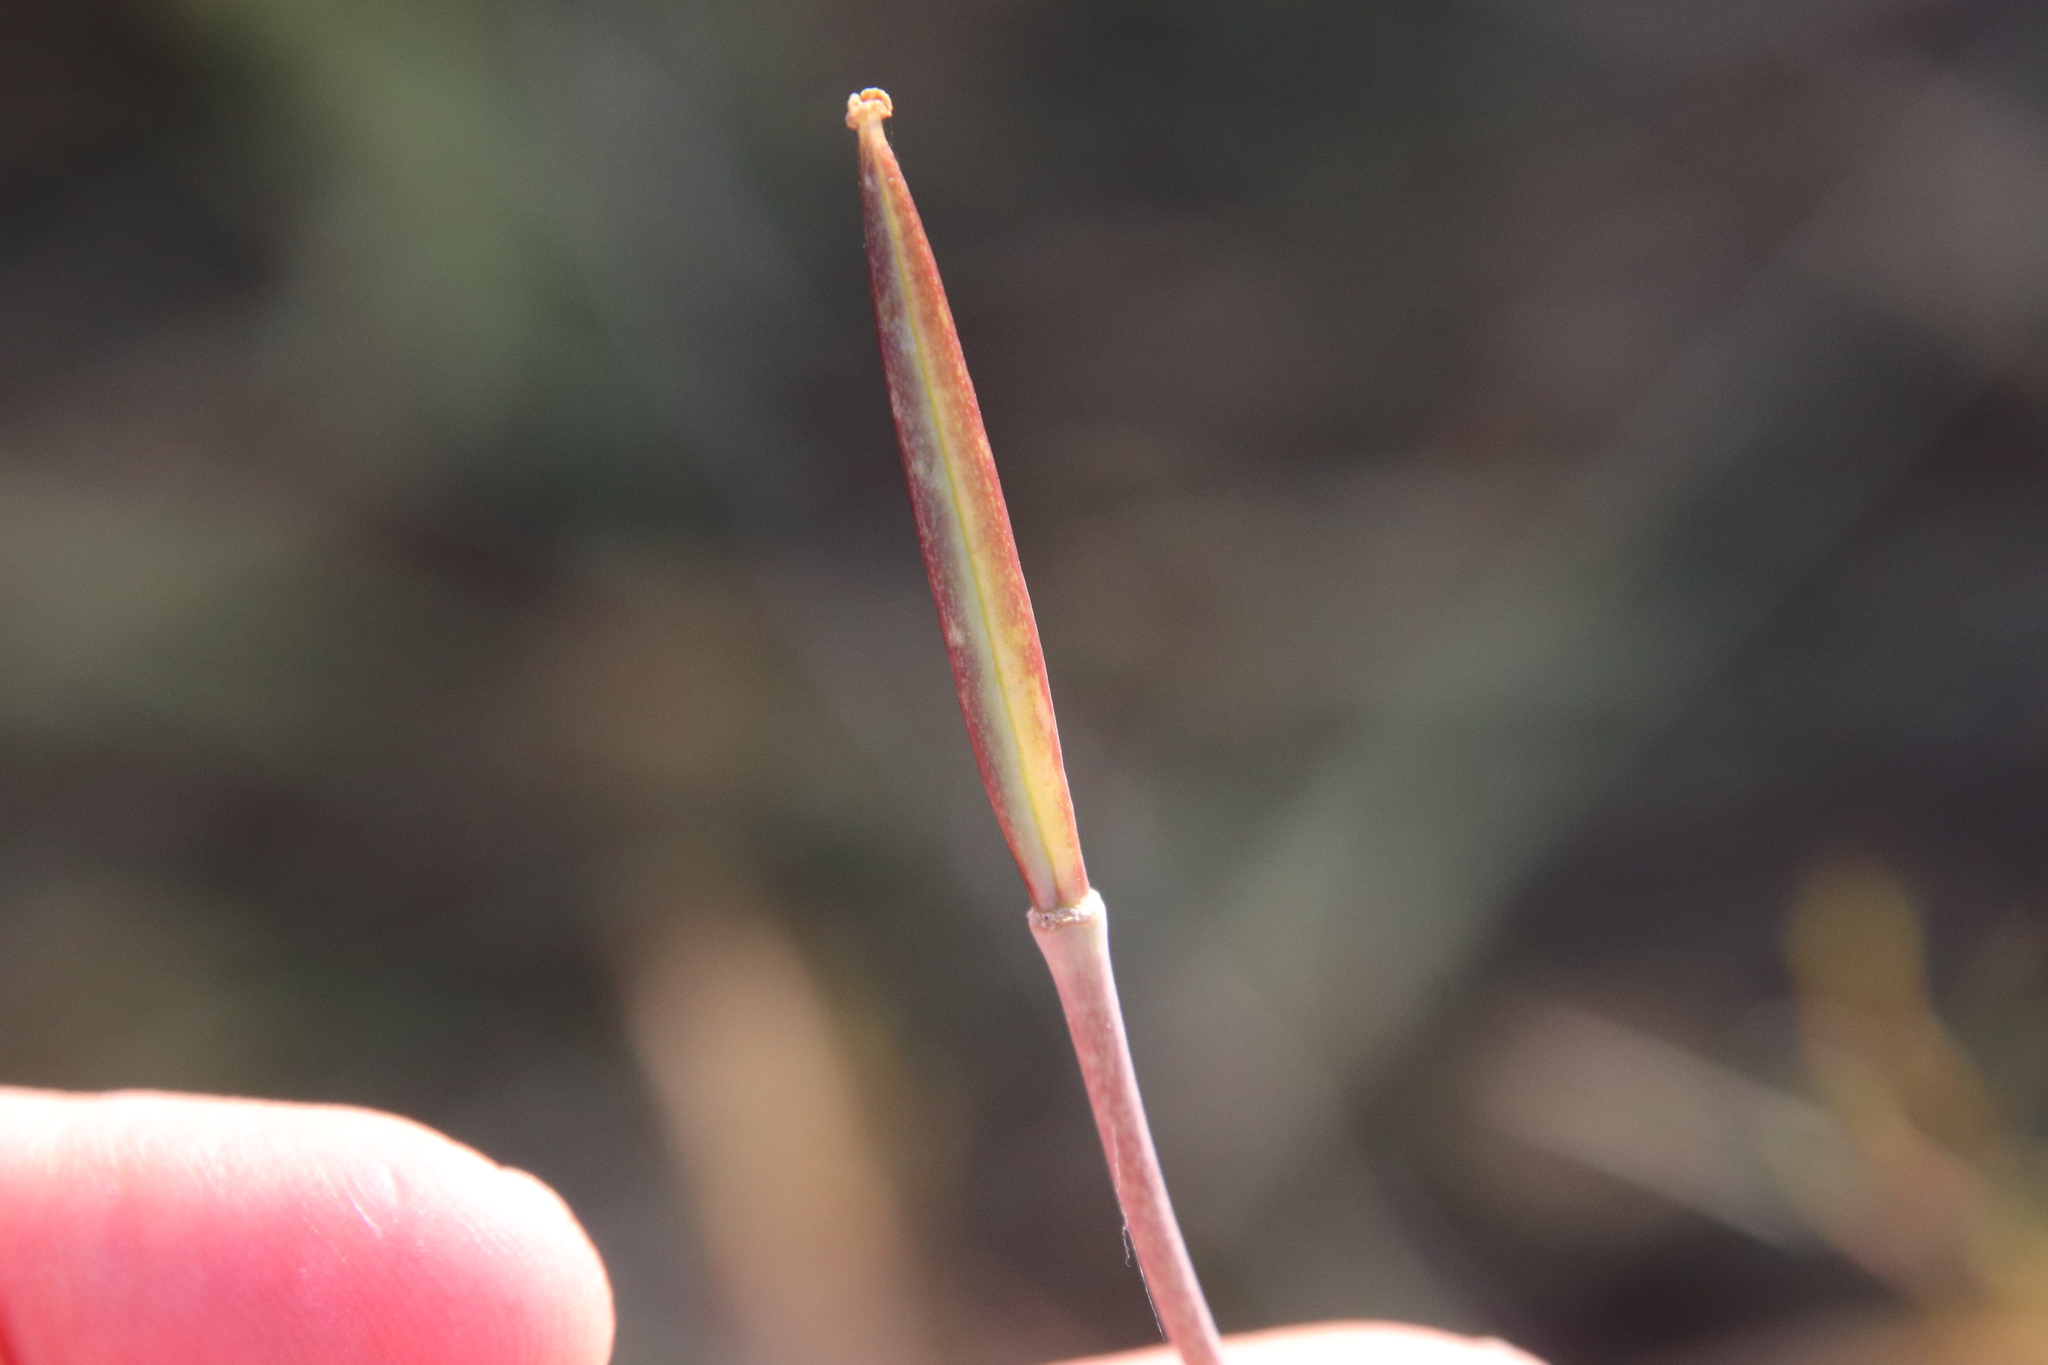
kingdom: Plantae
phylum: Tracheophyta
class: Liliopsida
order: Liliales
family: Liliaceae
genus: Calochortus
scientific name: Calochortus splendens
